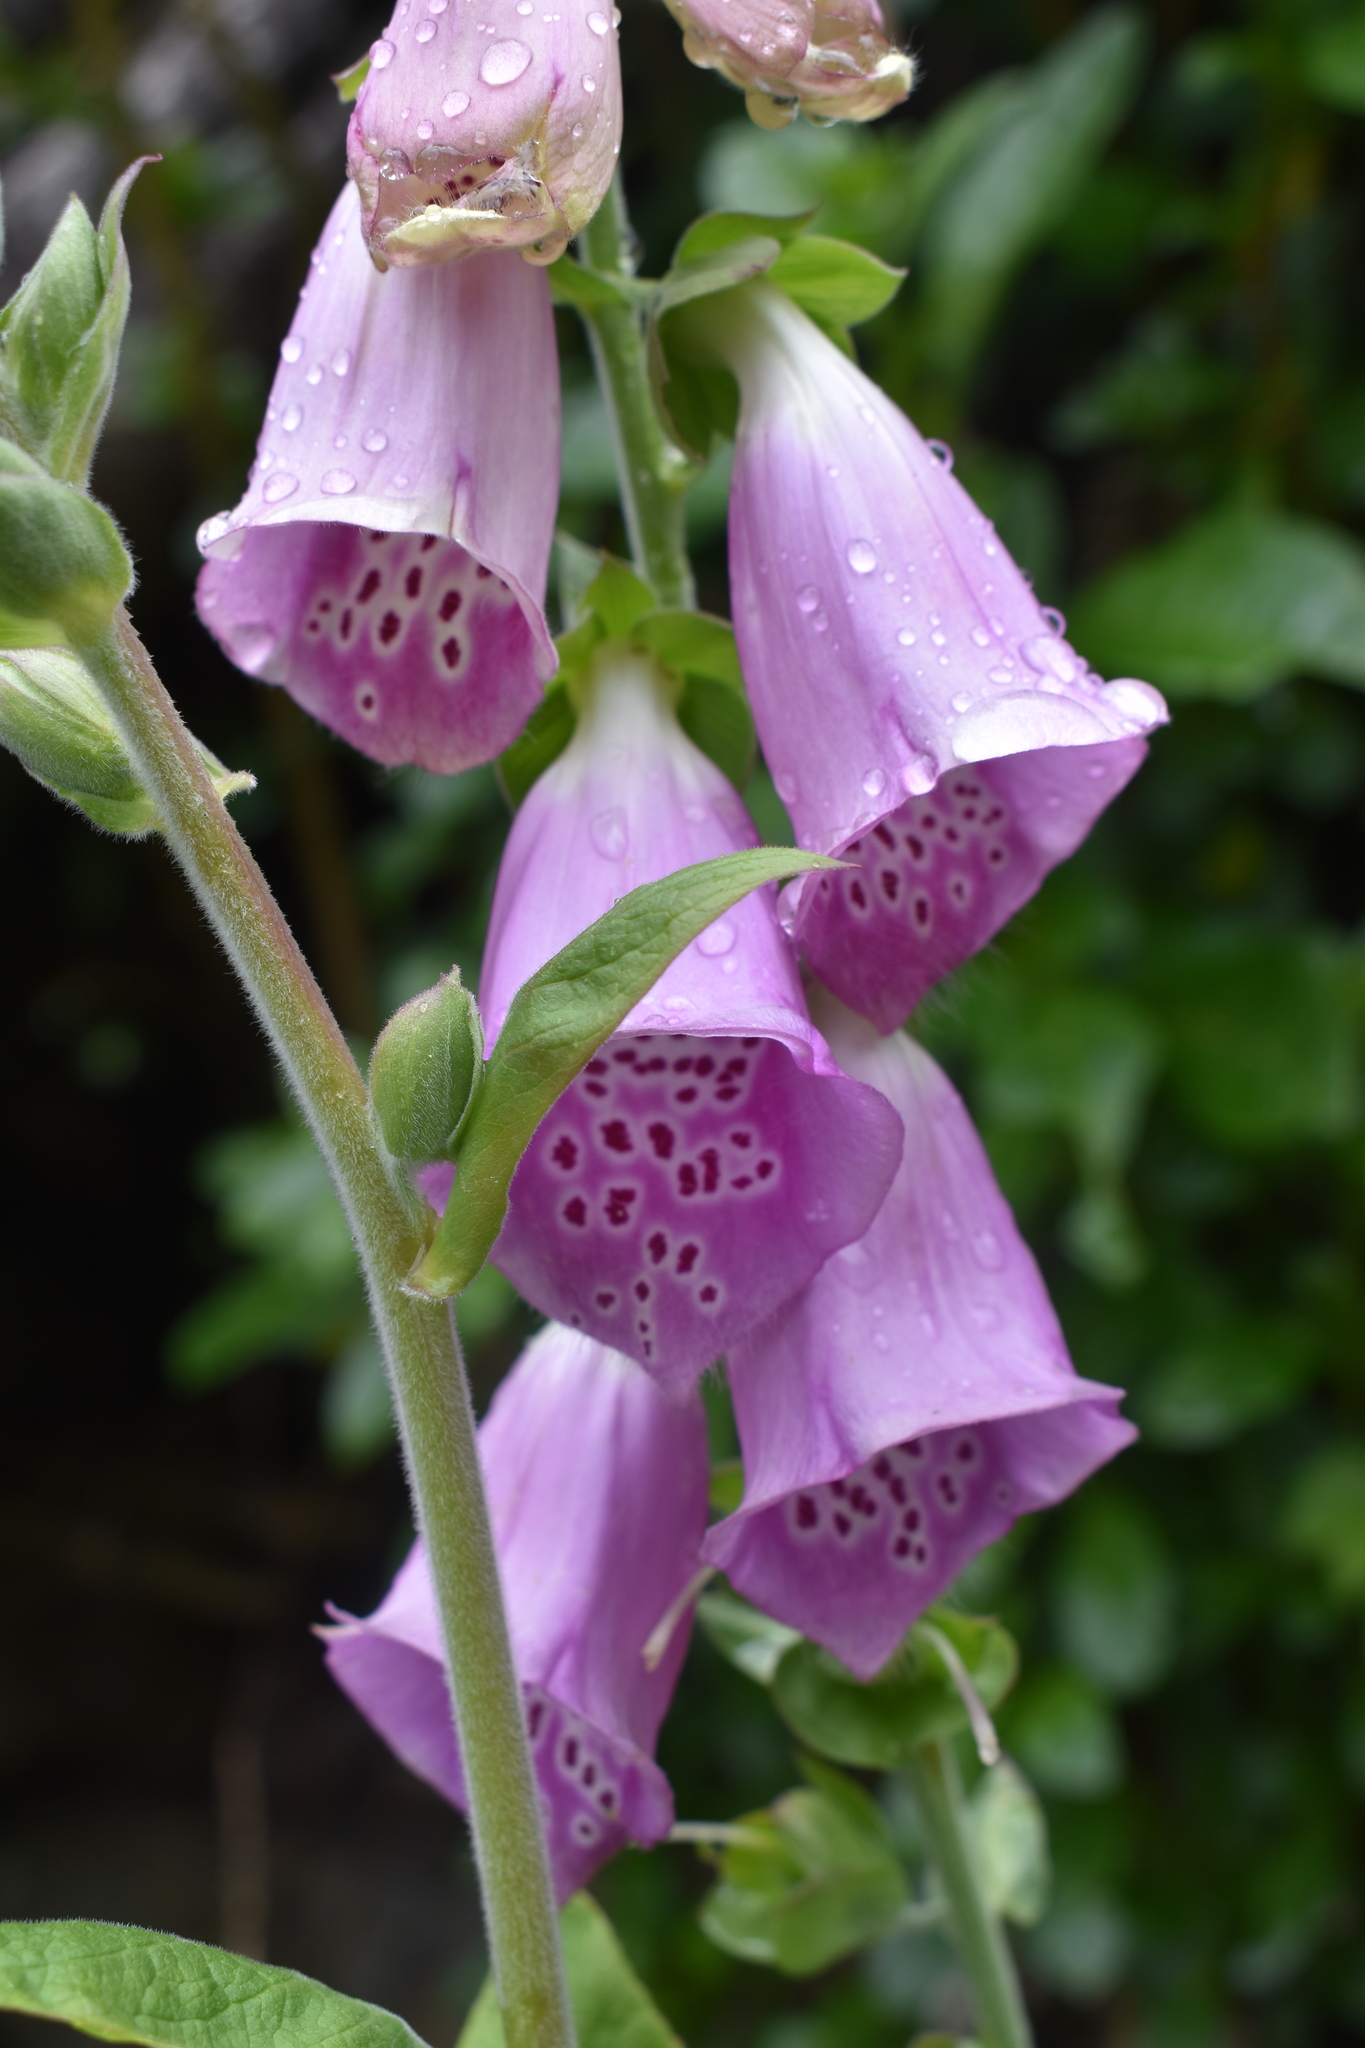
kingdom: Plantae
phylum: Tracheophyta
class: Magnoliopsida
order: Lamiales
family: Plantaginaceae
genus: Digitalis
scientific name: Digitalis purpurea
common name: Foxglove
